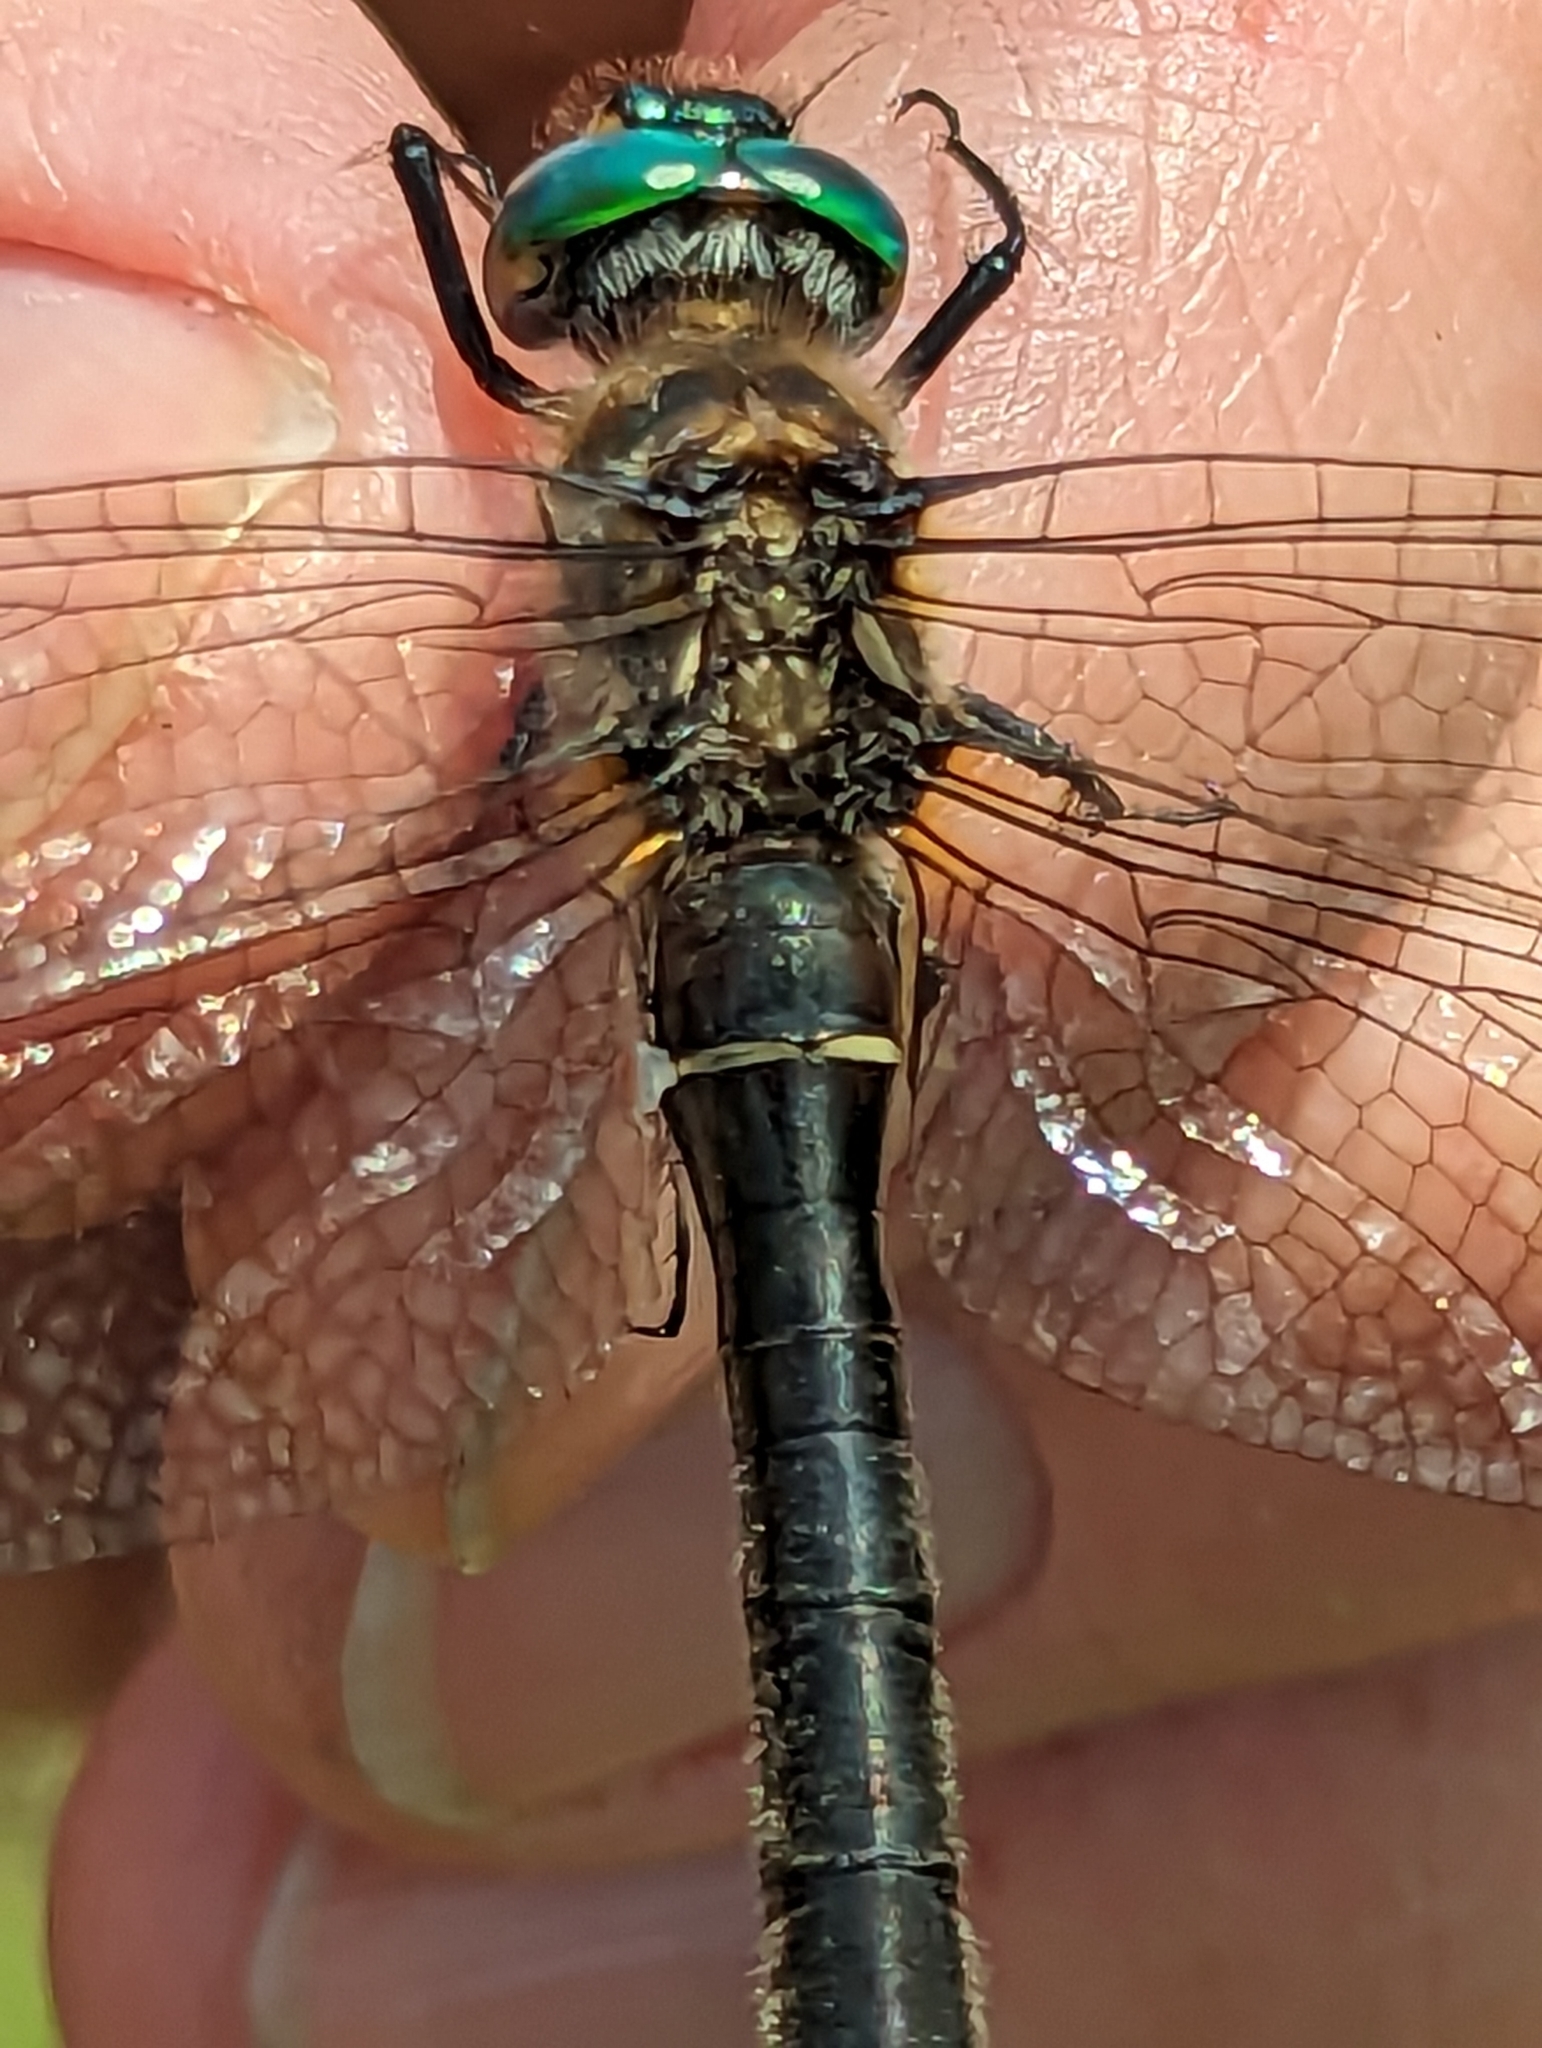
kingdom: Animalia
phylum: Arthropoda
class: Insecta
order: Odonata
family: Corduliidae
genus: Cordulia
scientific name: Cordulia shurtleffii
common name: American emerald
